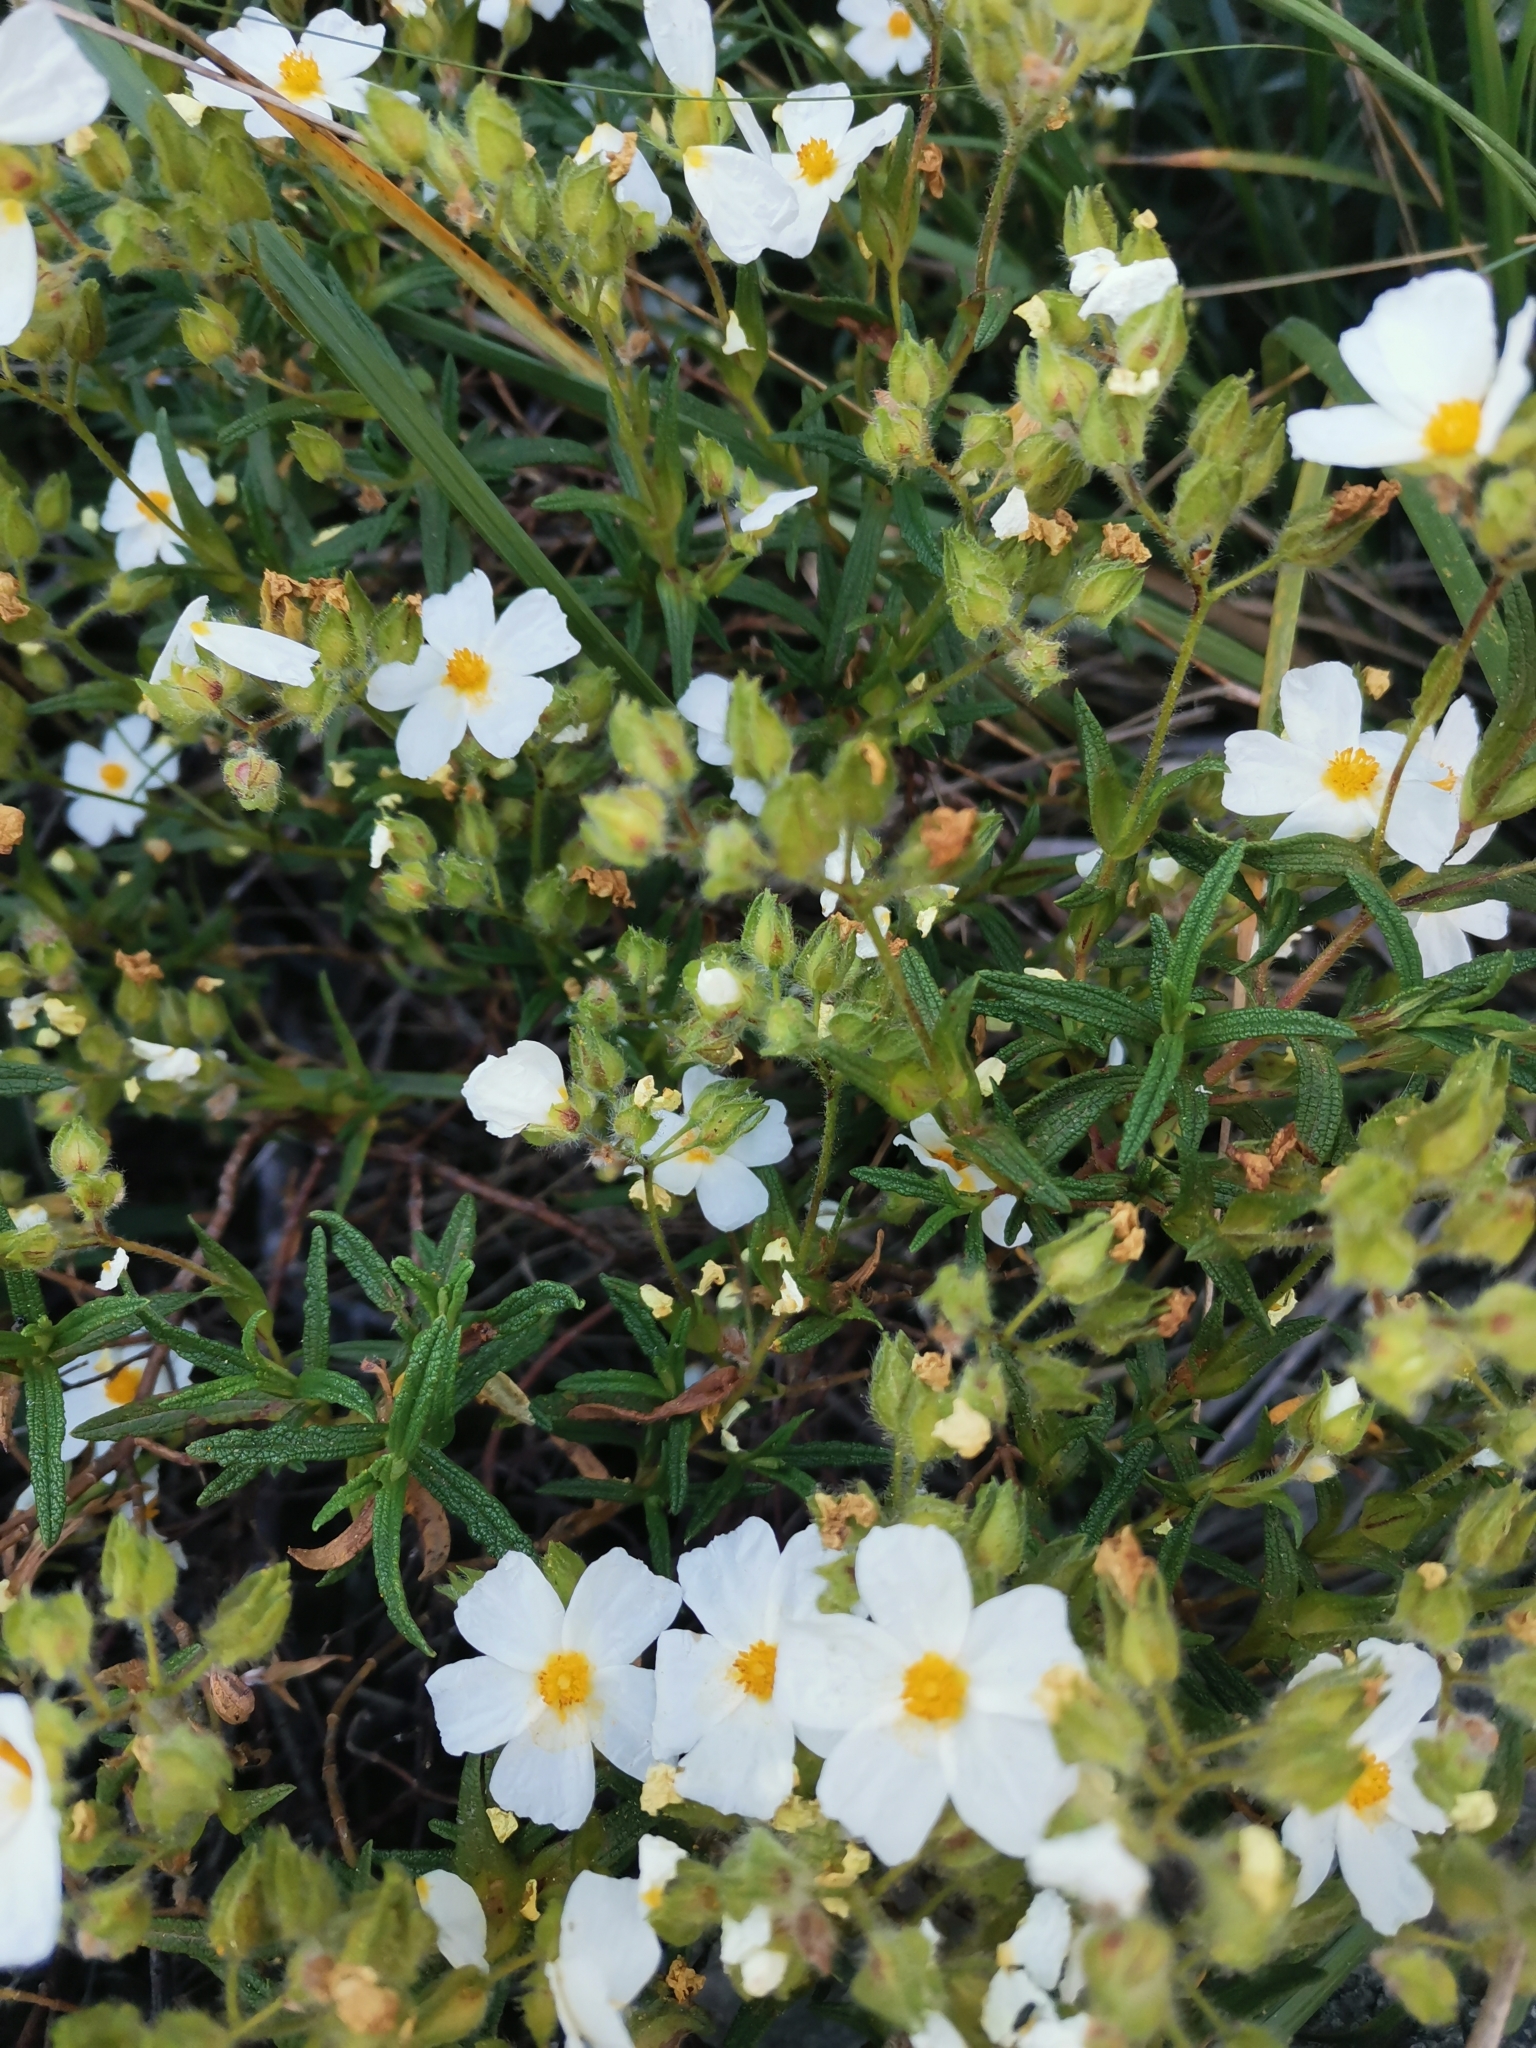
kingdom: Plantae
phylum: Tracheophyta
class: Magnoliopsida
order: Malvales
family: Cistaceae
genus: Cistus
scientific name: Cistus monspeliensis
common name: Montpelier cistus
